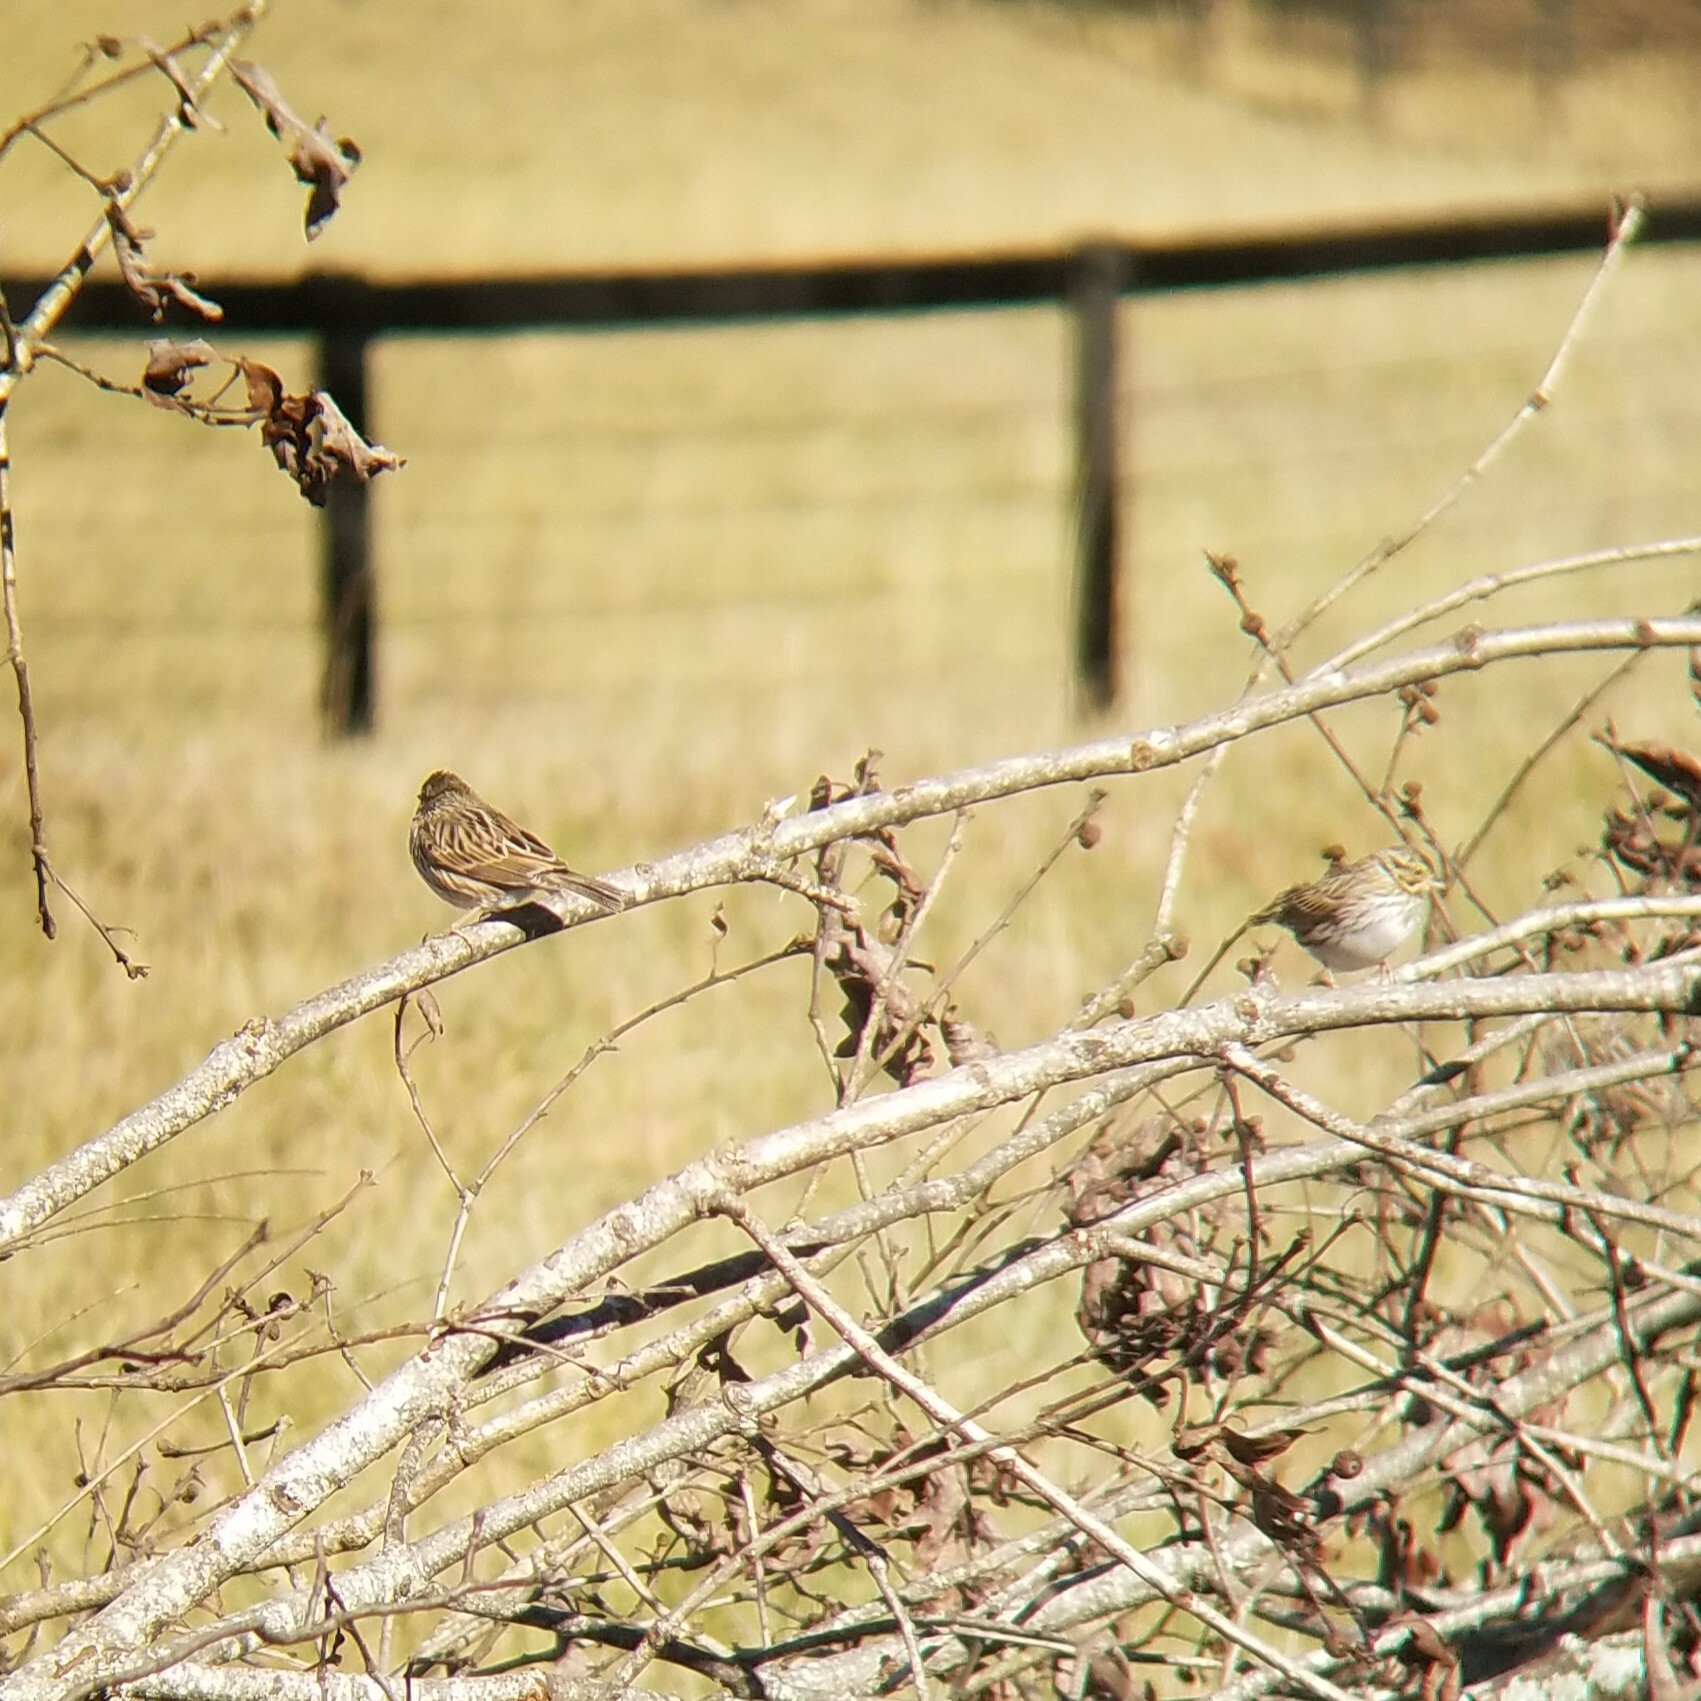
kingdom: Animalia
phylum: Chordata
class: Aves
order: Passeriformes
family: Passerellidae
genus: Passerculus
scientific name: Passerculus sandwichensis
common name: Savannah sparrow
